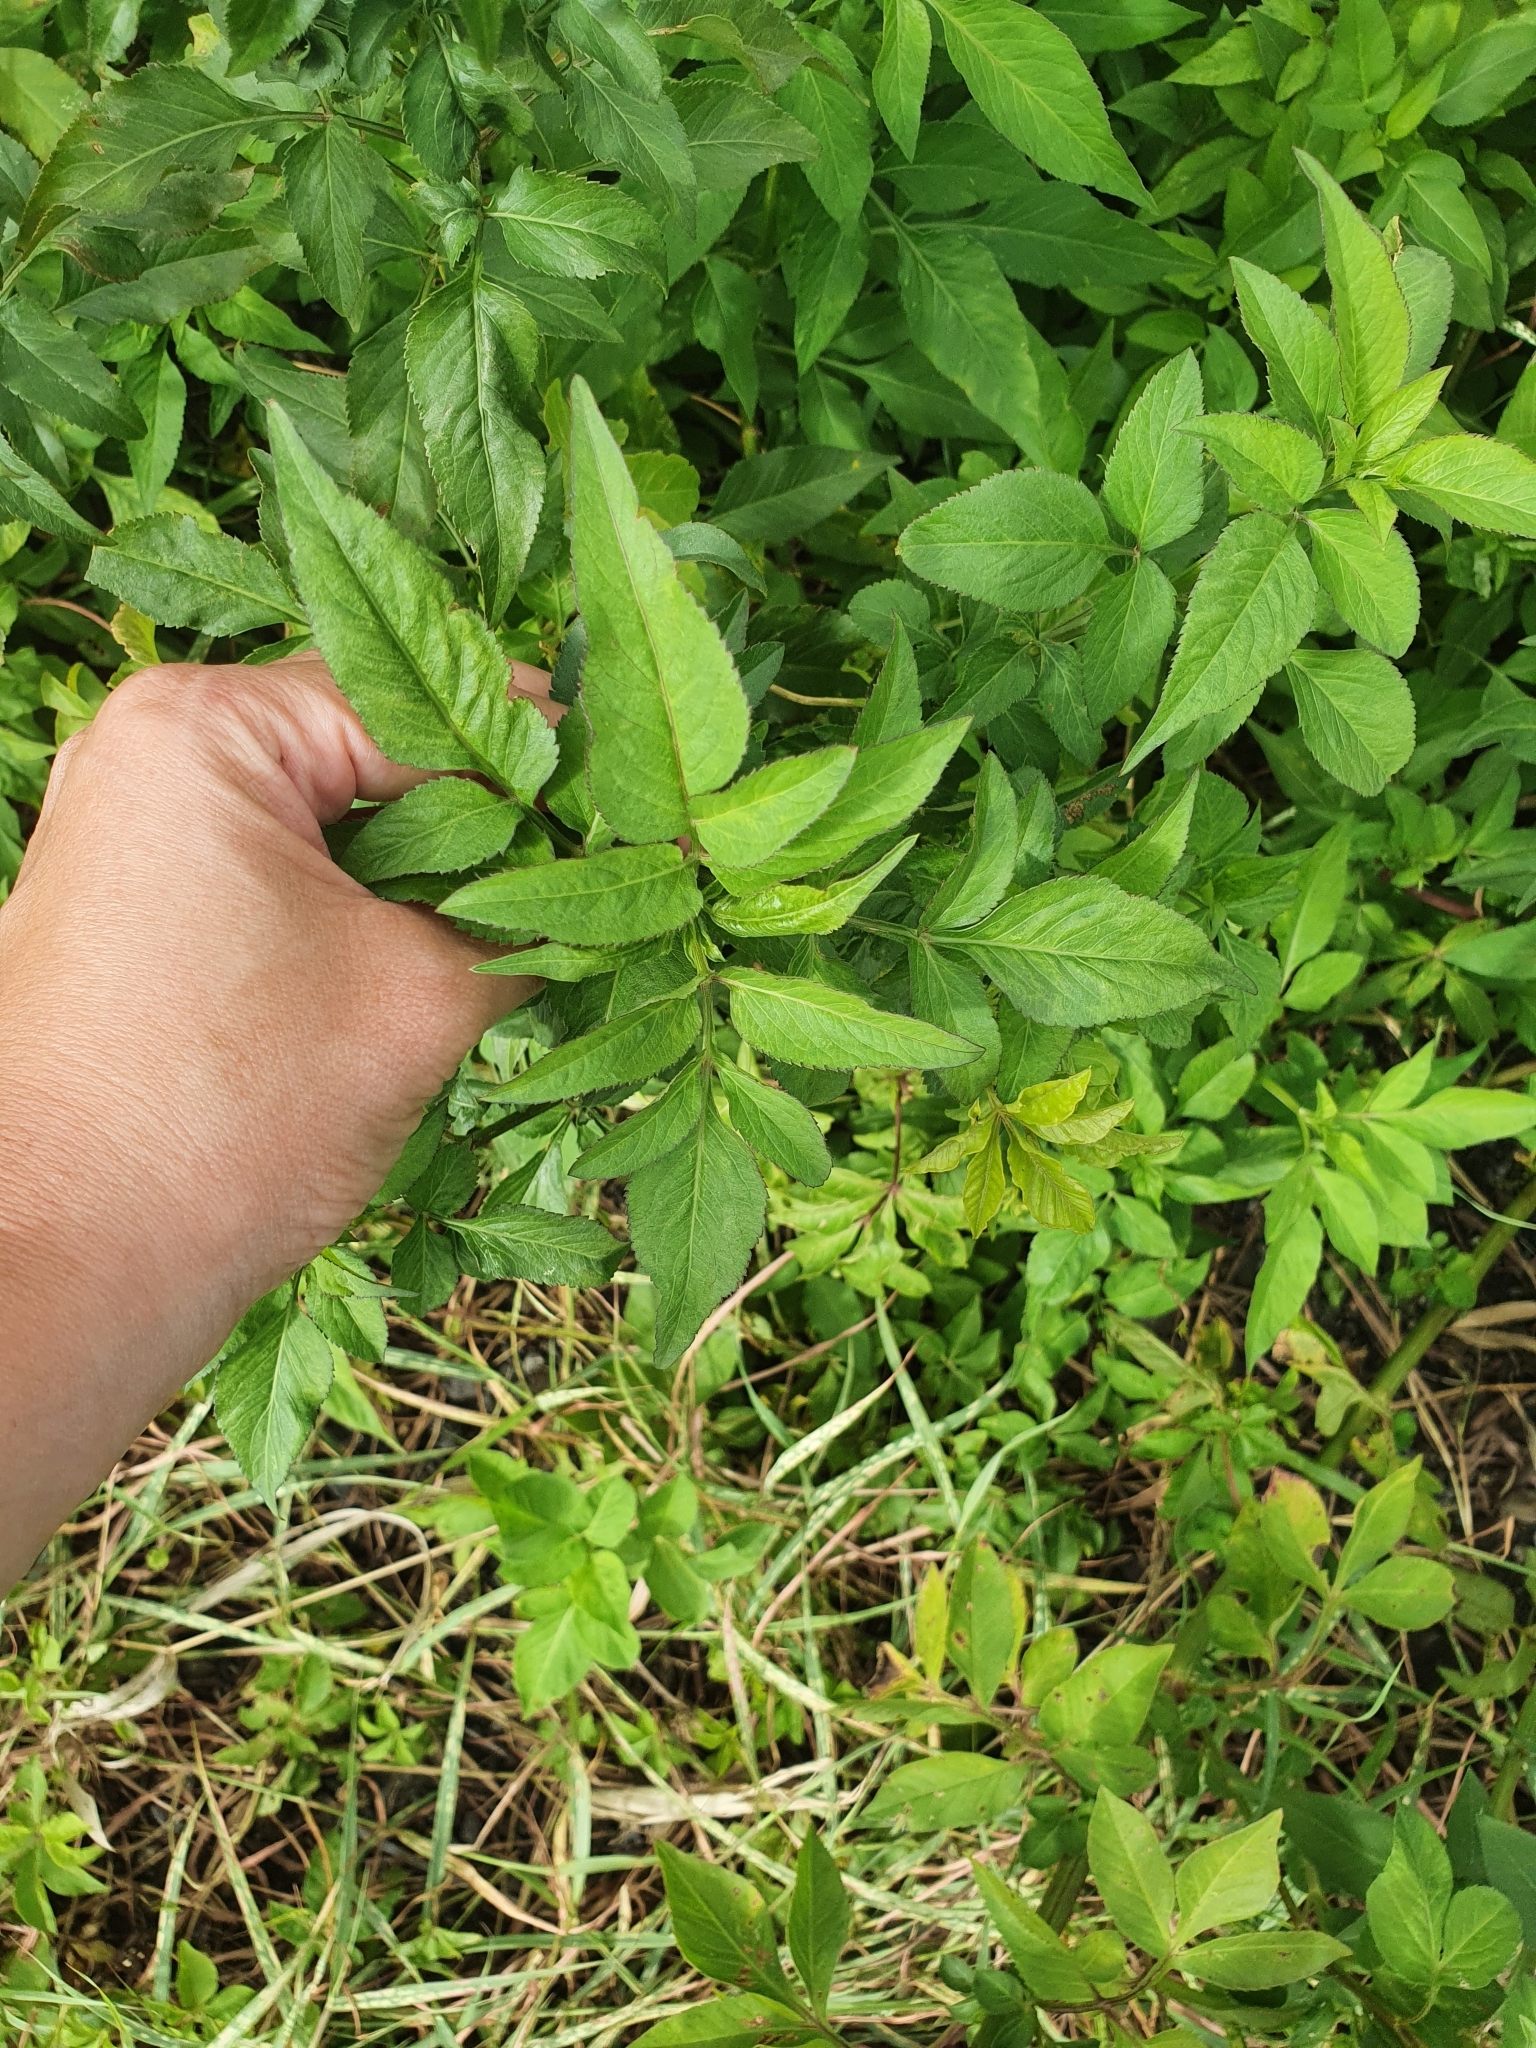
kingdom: Plantae
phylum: Tracheophyta
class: Magnoliopsida
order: Asterales
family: Asteraceae
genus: Bidens
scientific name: Bidens alba
